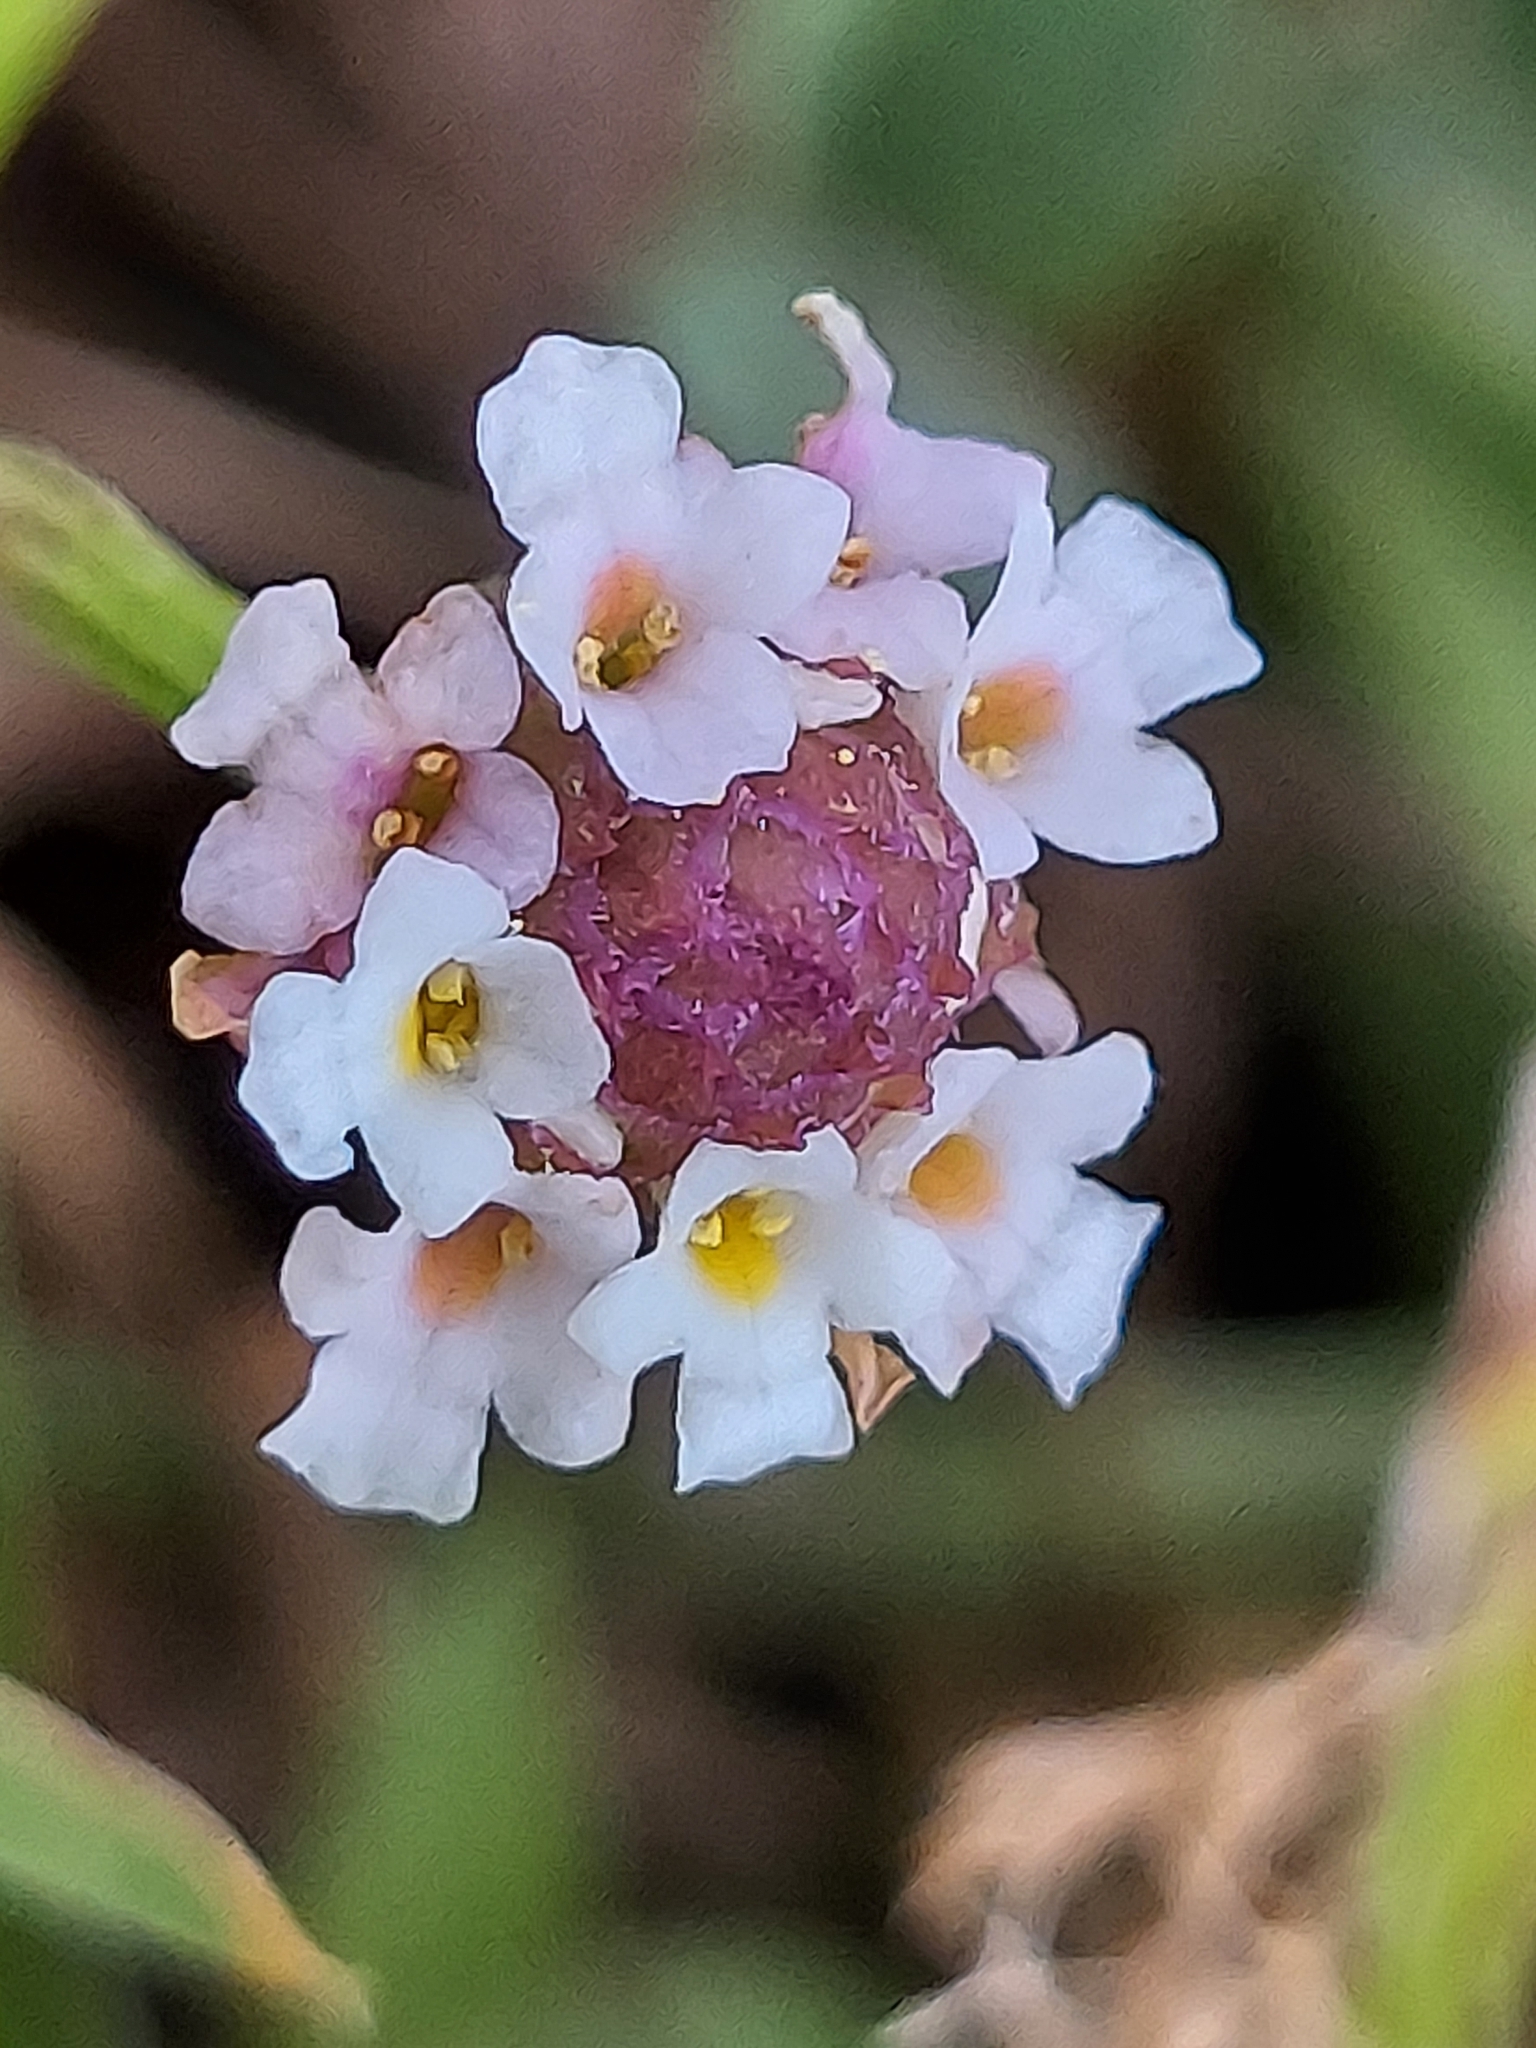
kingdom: Plantae
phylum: Tracheophyta
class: Magnoliopsida
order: Lamiales
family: Verbenaceae
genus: Phyla
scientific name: Phyla lanceolata
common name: Northern fogfruit
